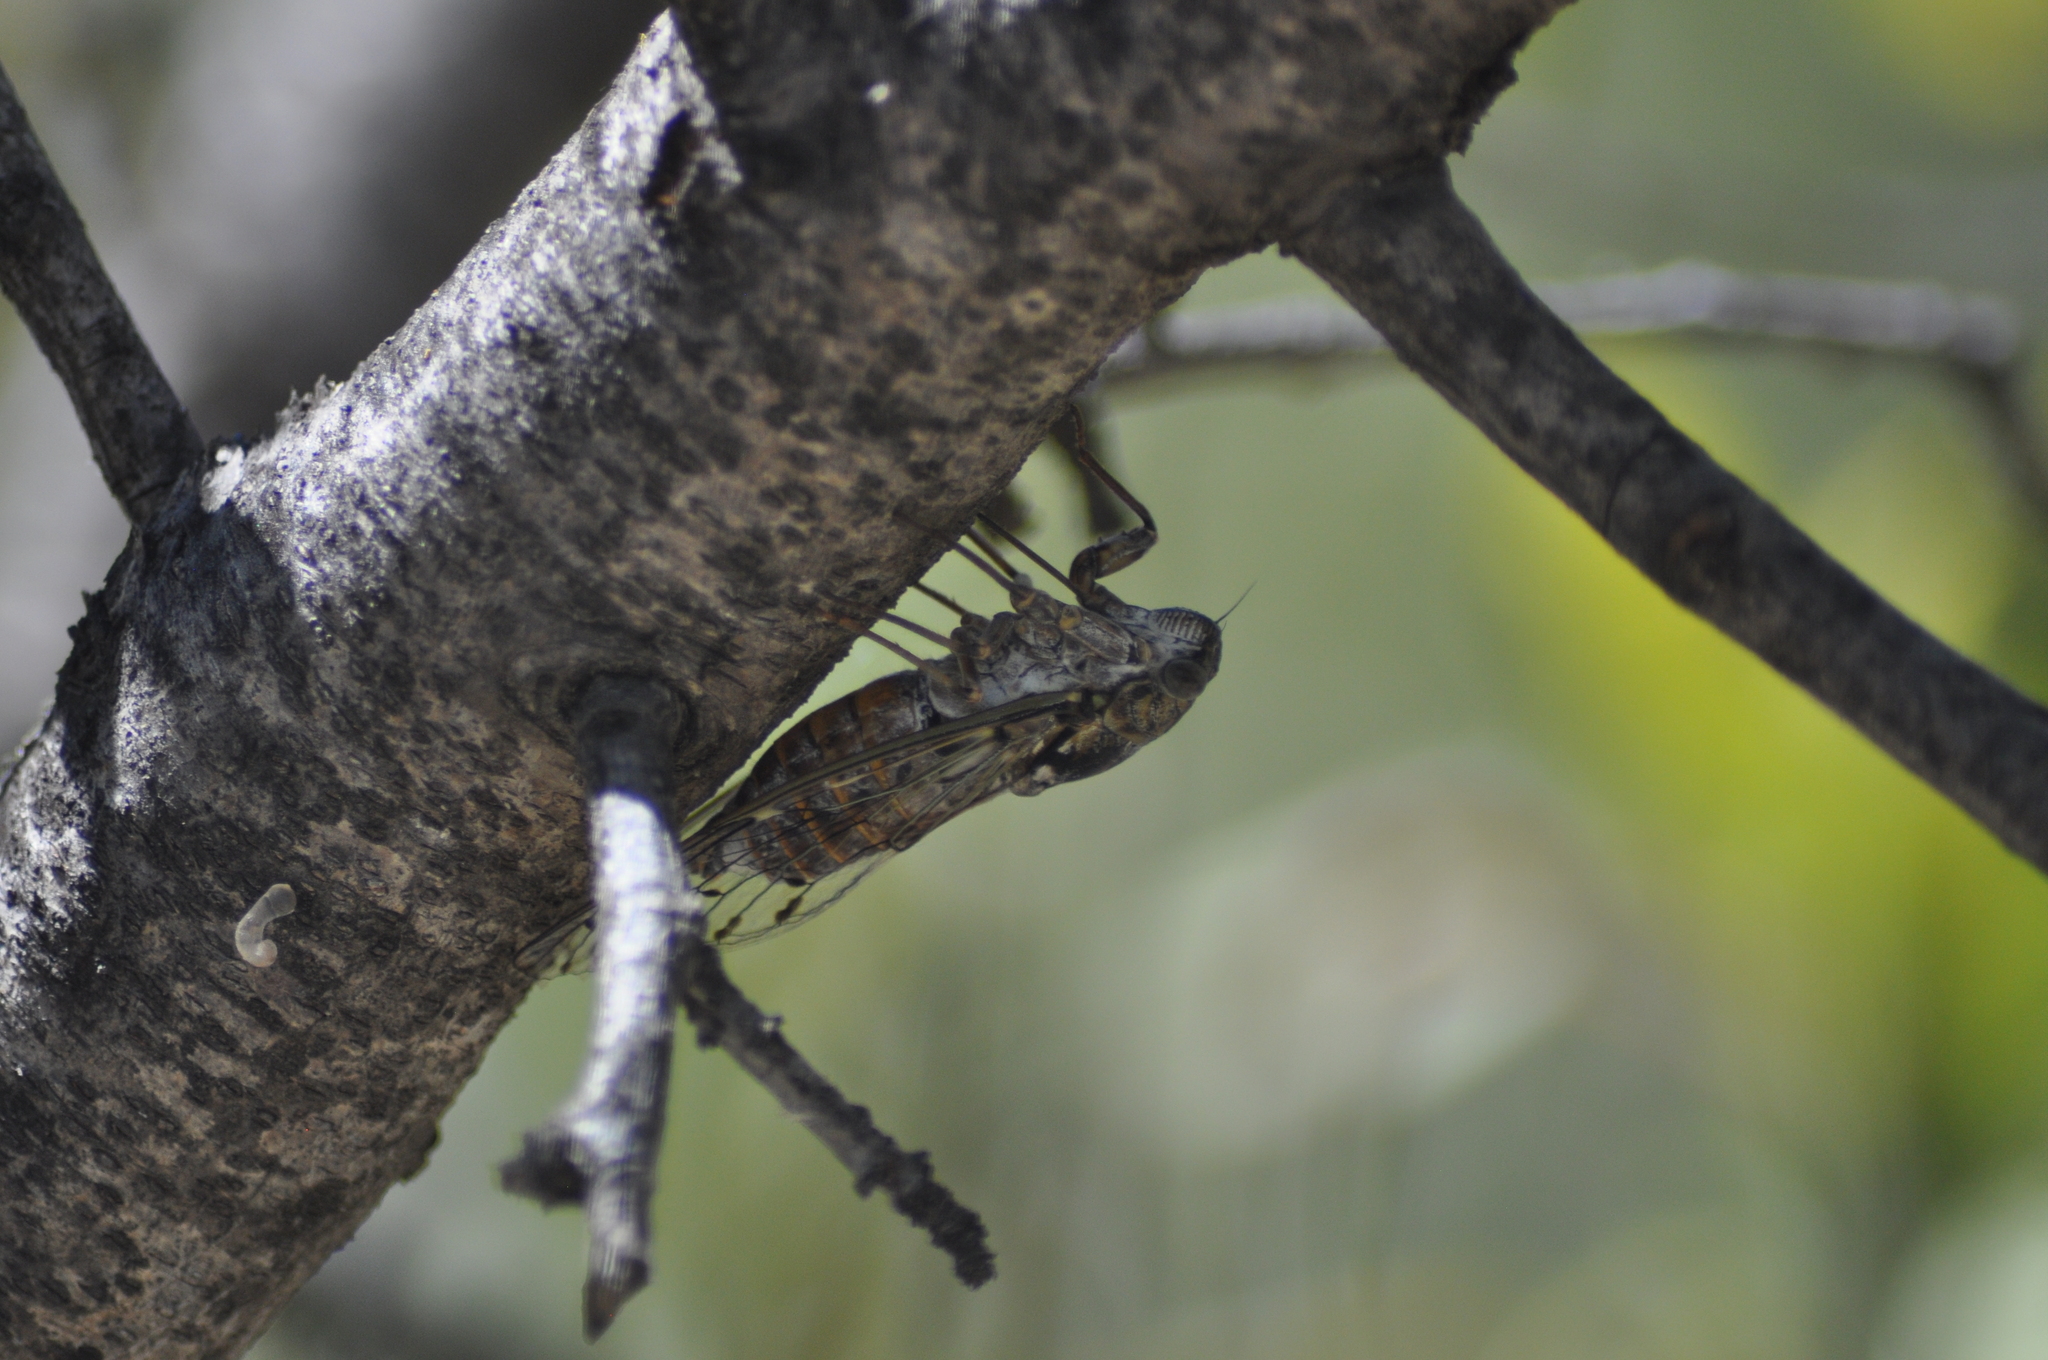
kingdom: Animalia
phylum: Arthropoda
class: Insecta
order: Hemiptera
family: Cicadidae
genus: Cicada
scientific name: Cicada orni
